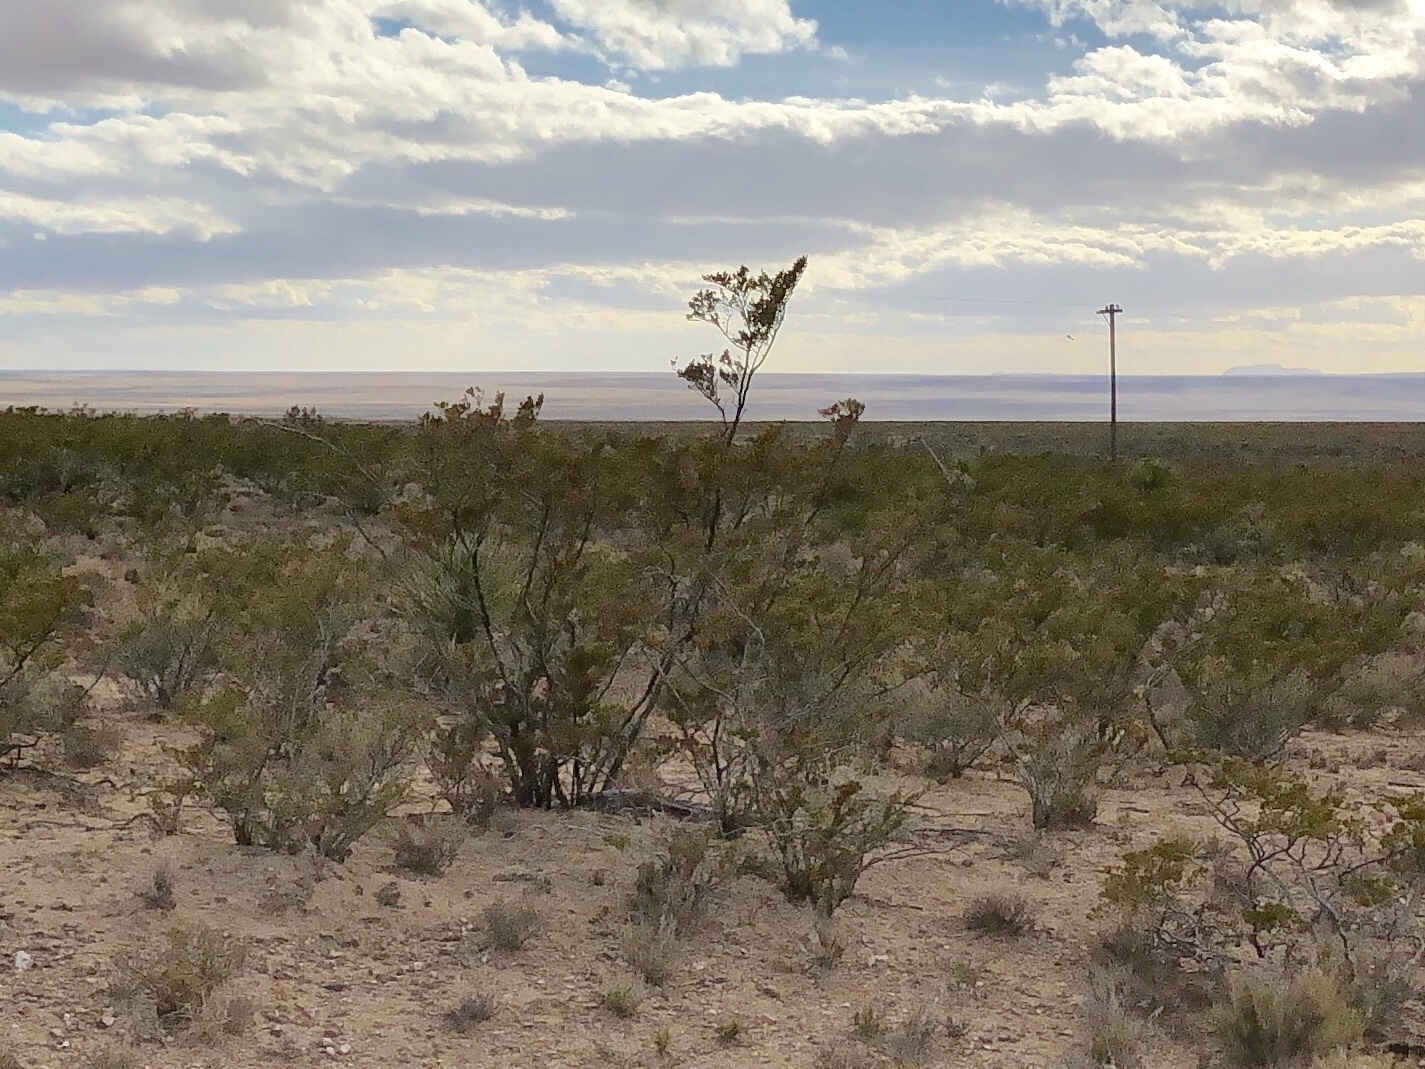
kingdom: Plantae
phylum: Tracheophyta
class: Magnoliopsida
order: Zygophyllales
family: Zygophyllaceae
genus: Larrea
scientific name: Larrea tridentata
